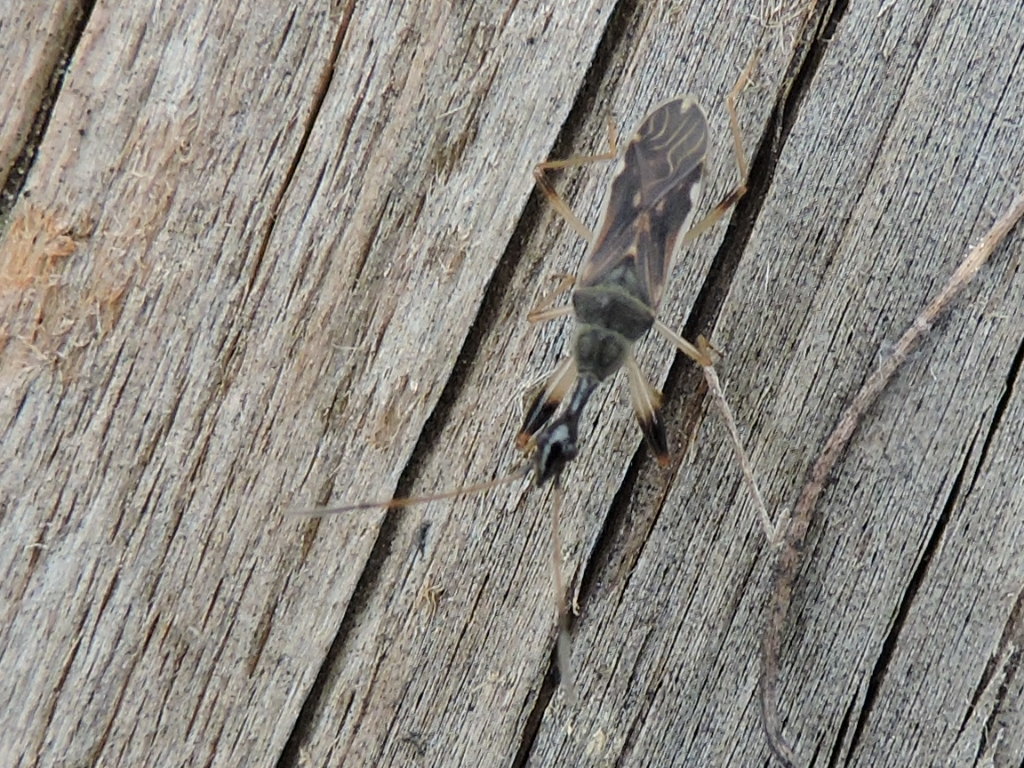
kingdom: Animalia
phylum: Arthropoda
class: Insecta
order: Hemiptera
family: Rhyparochromidae
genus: Myodocha
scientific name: Myodocha serripes
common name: Long-necked seed bug
